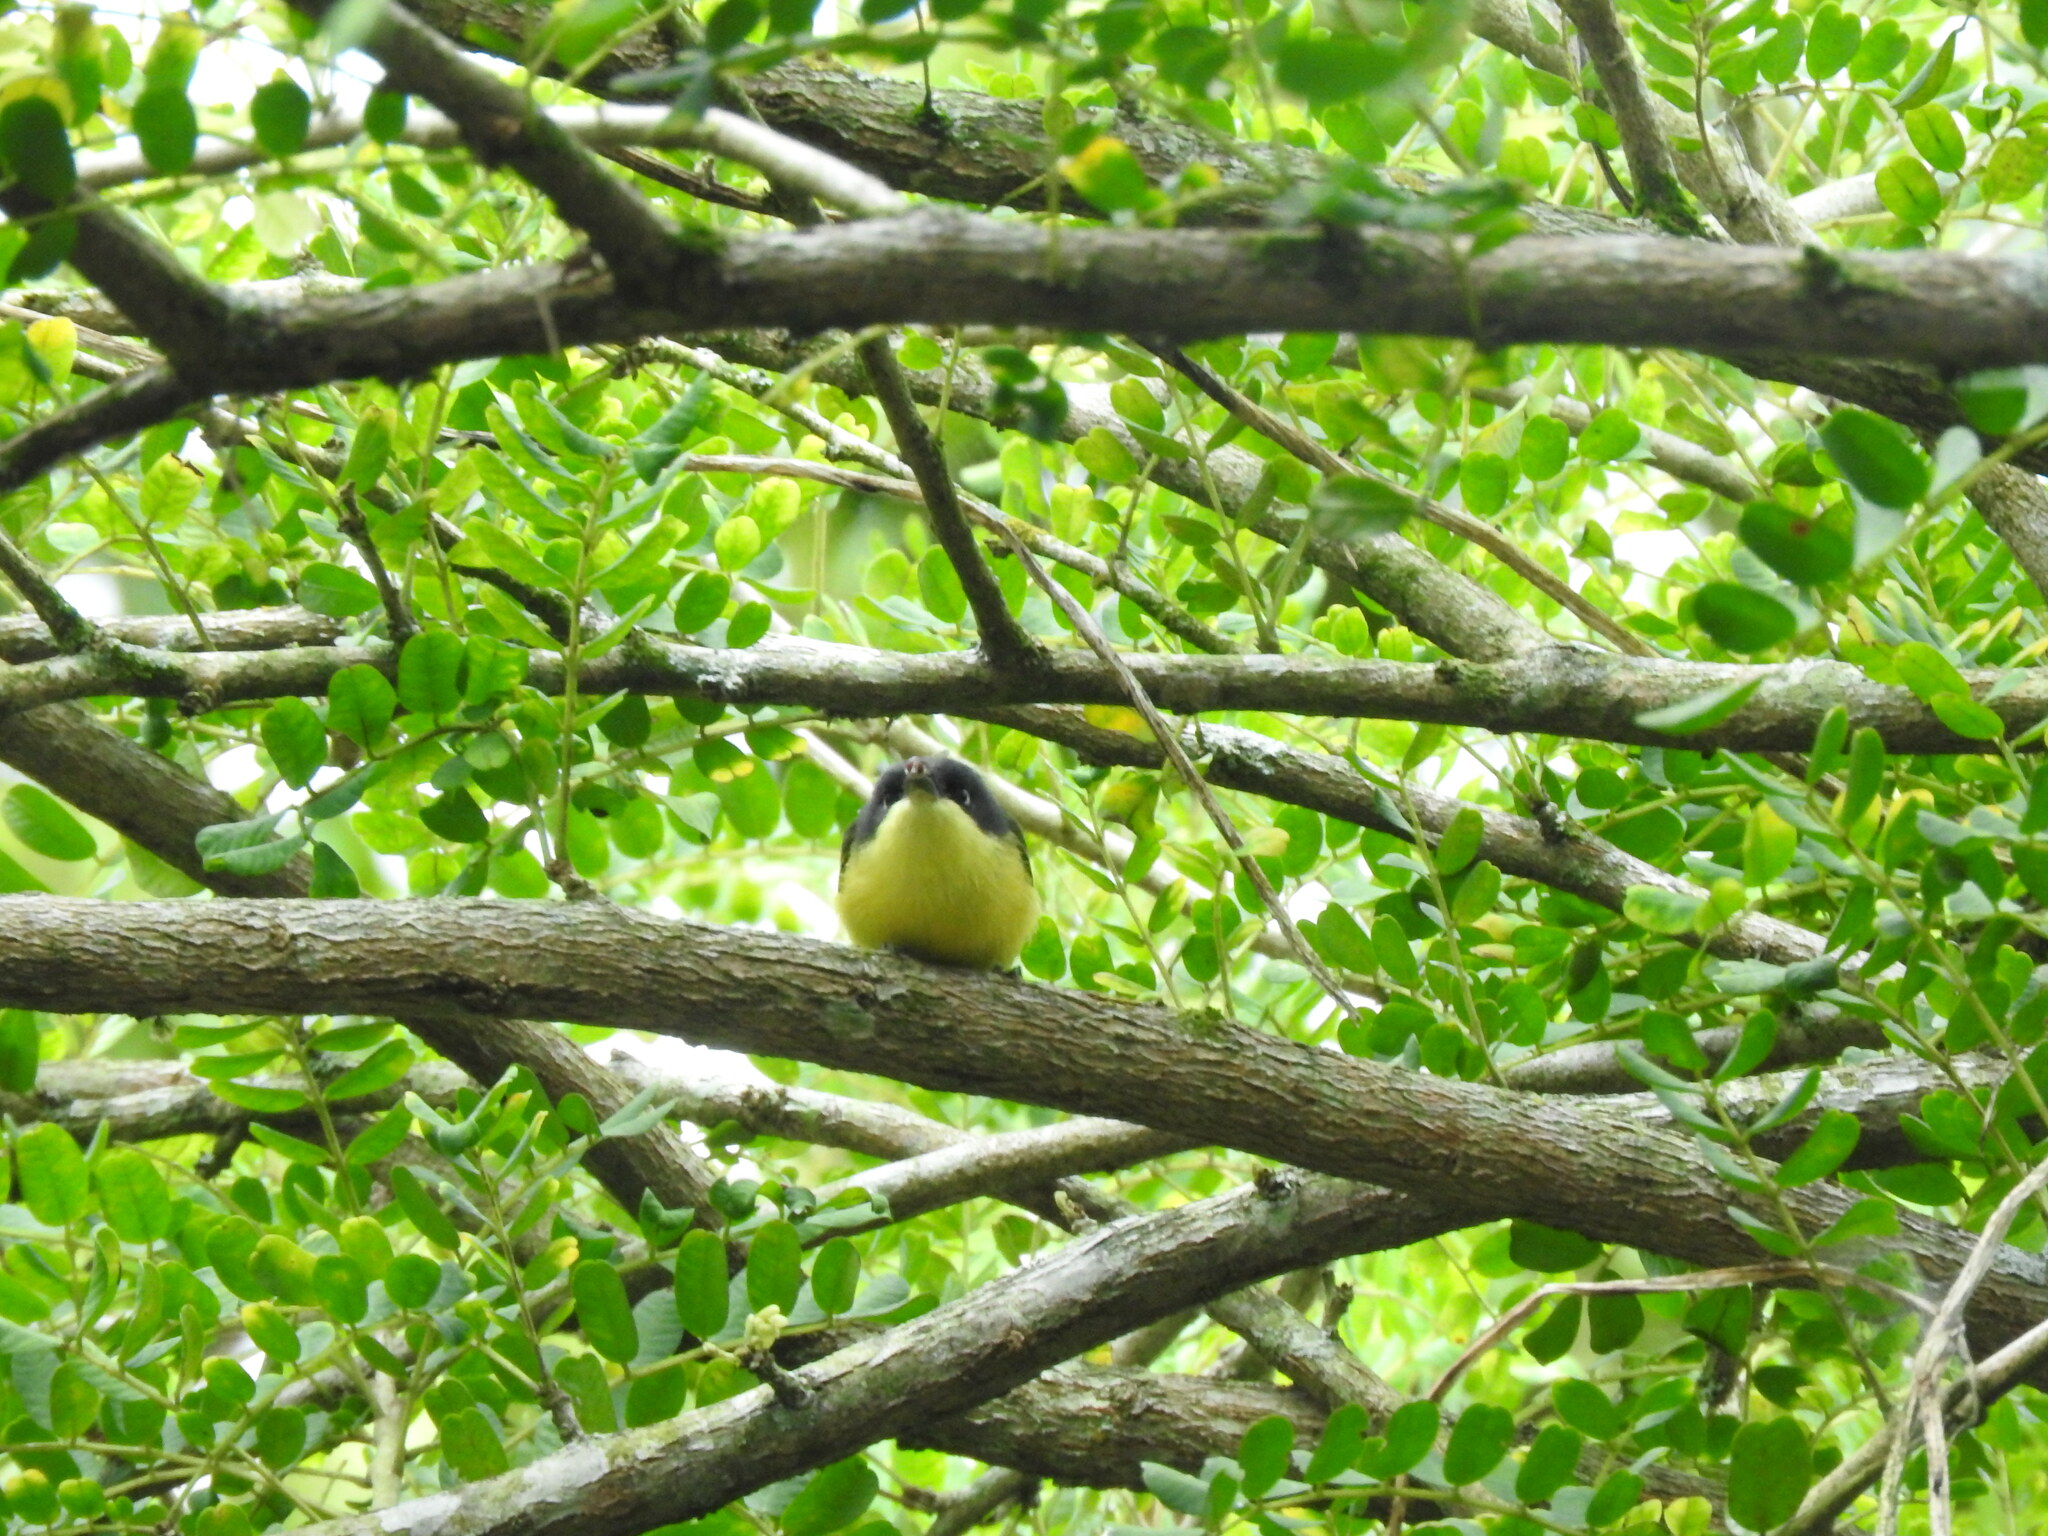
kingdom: Animalia
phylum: Chordata
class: Aves
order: Passeriformes
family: Tyrannidae
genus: Todirostrum
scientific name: Todirostrum cinereum
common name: Common tody-flycatcher
